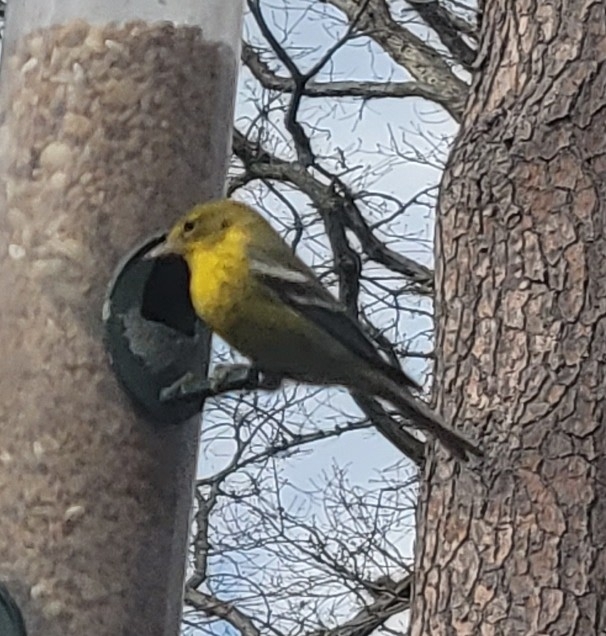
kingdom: Animalia
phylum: Chordata
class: Aves
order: Passeriformes
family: Parulidae
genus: Setophaga
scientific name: Setophaga pinus
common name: Pine warbler
